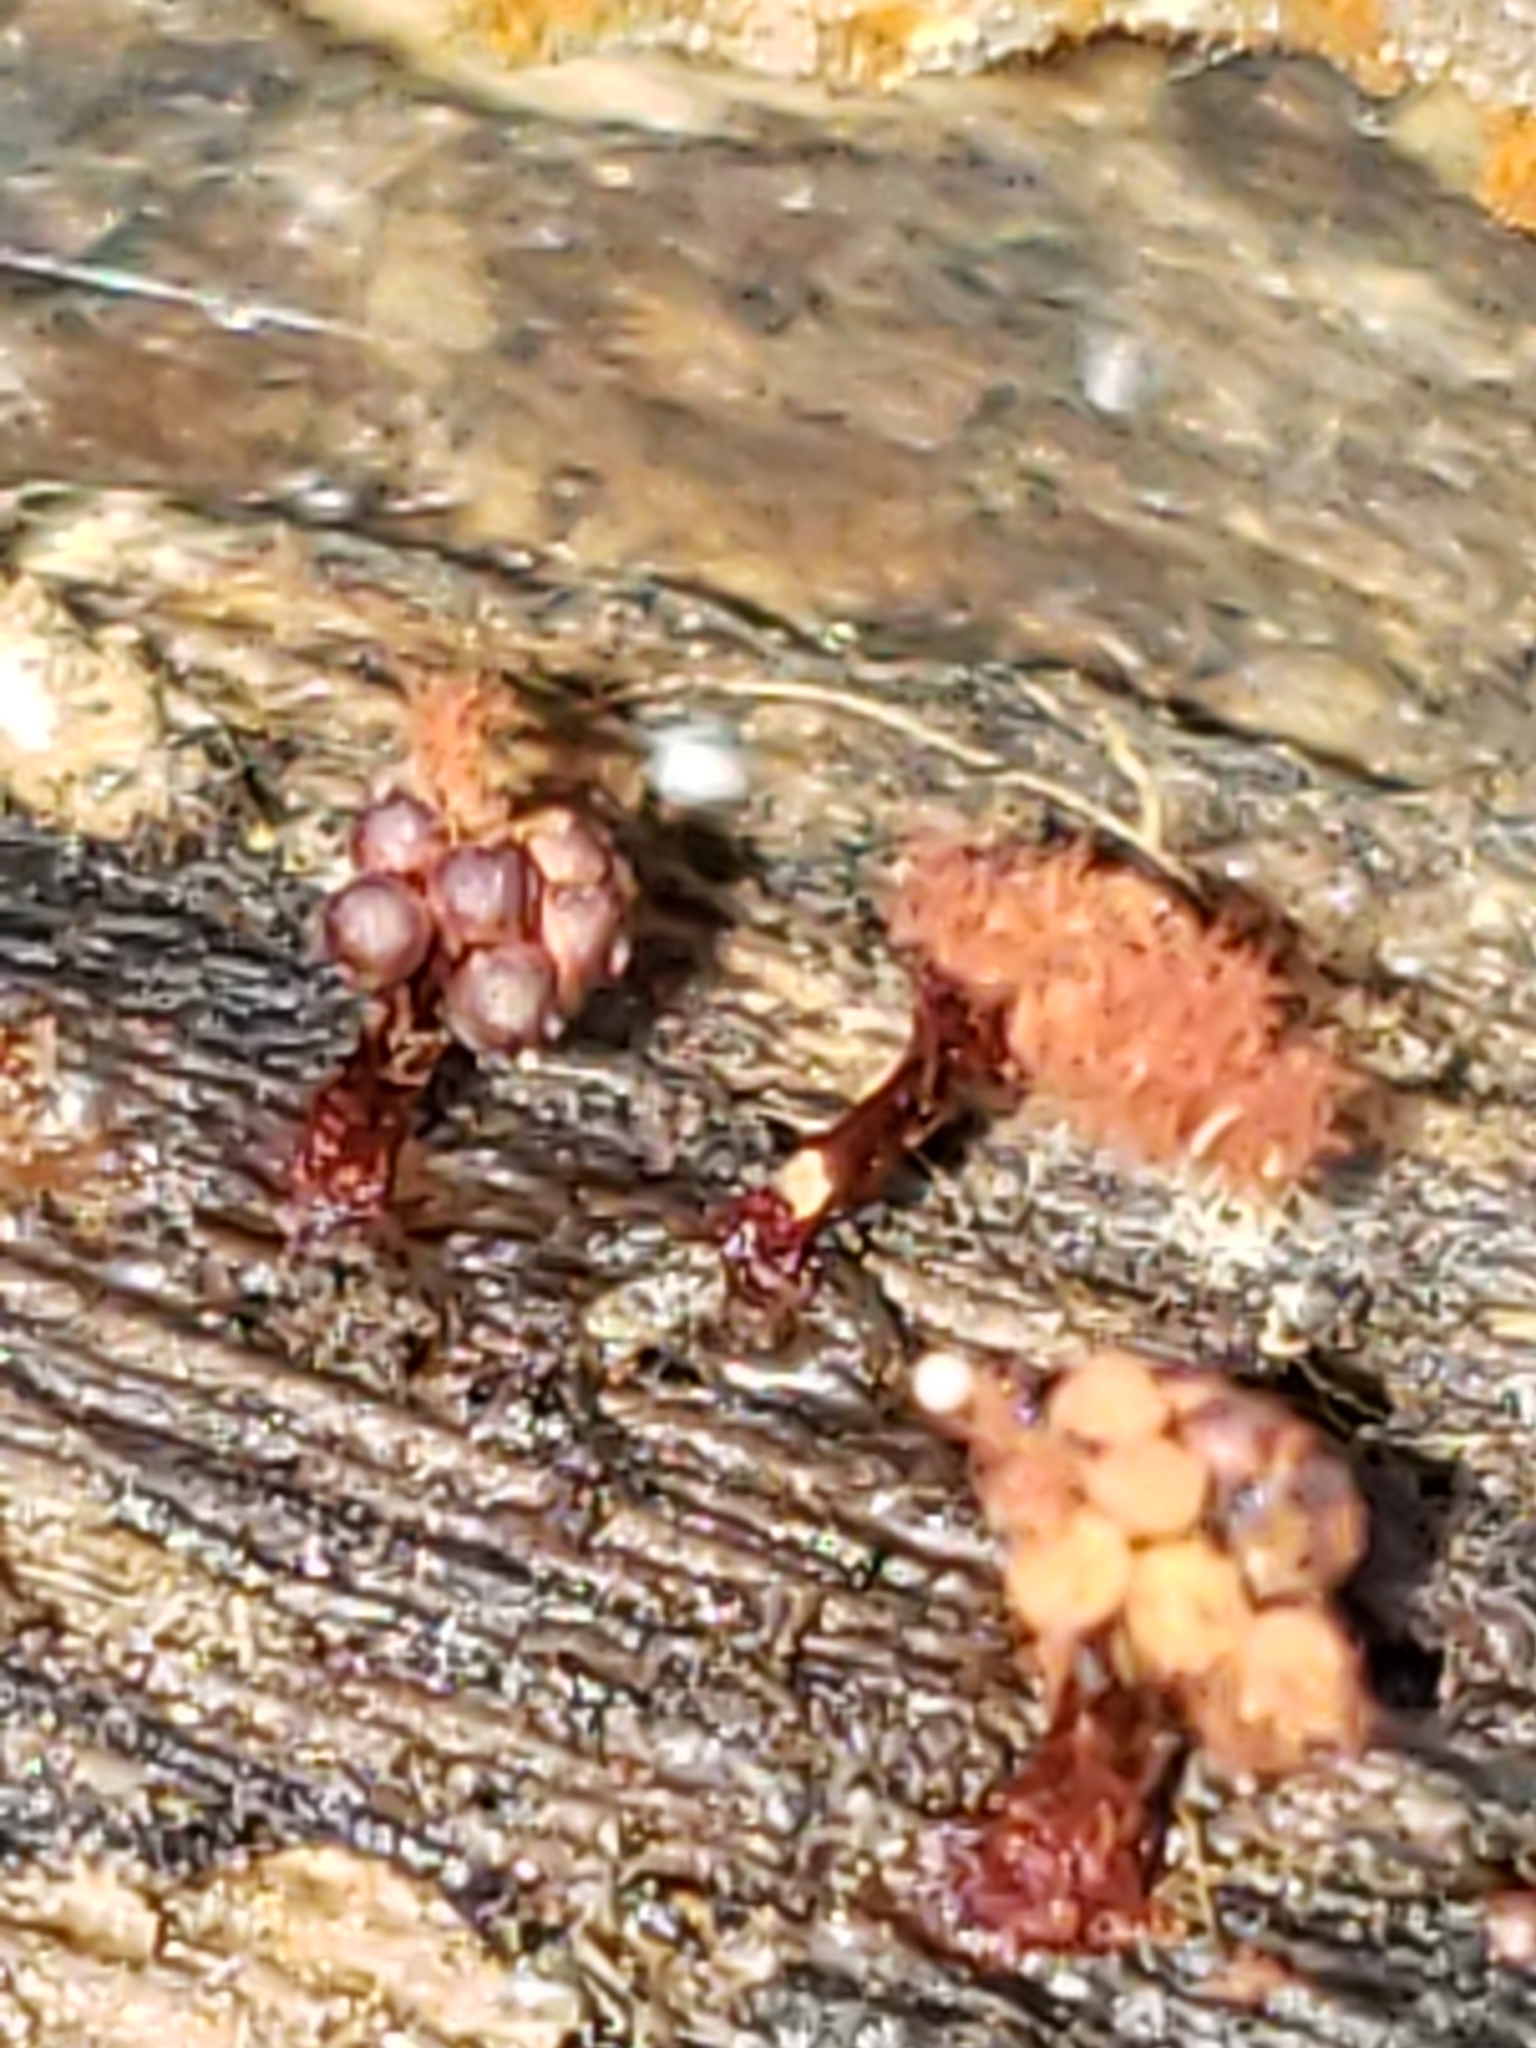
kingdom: Protozoa
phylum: Mycetozoa
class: Myxomycetes
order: Trichiales
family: Trichiaceae
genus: Metatrichia
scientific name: Metatrichia vesparia
